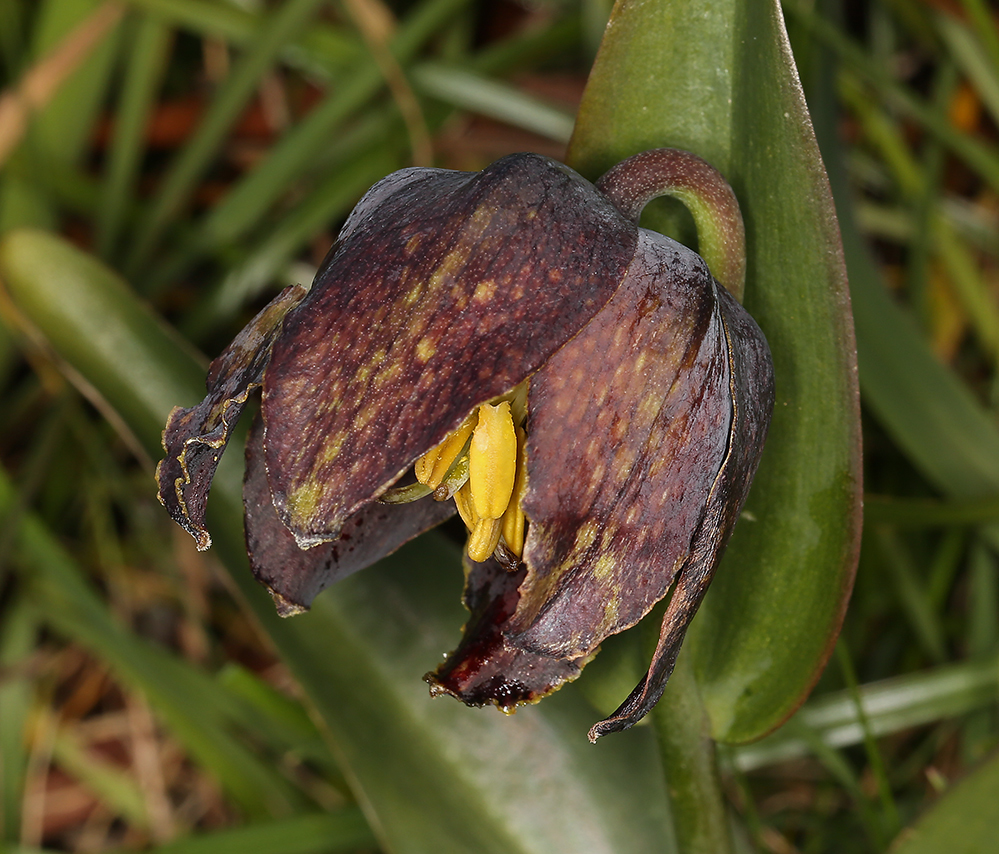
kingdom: Plantae
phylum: Tracheophyta
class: Liliopsida
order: Liliales
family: Liliaceae
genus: Fritillaria
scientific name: Fritillaria affinis
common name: Ojai fritillary
